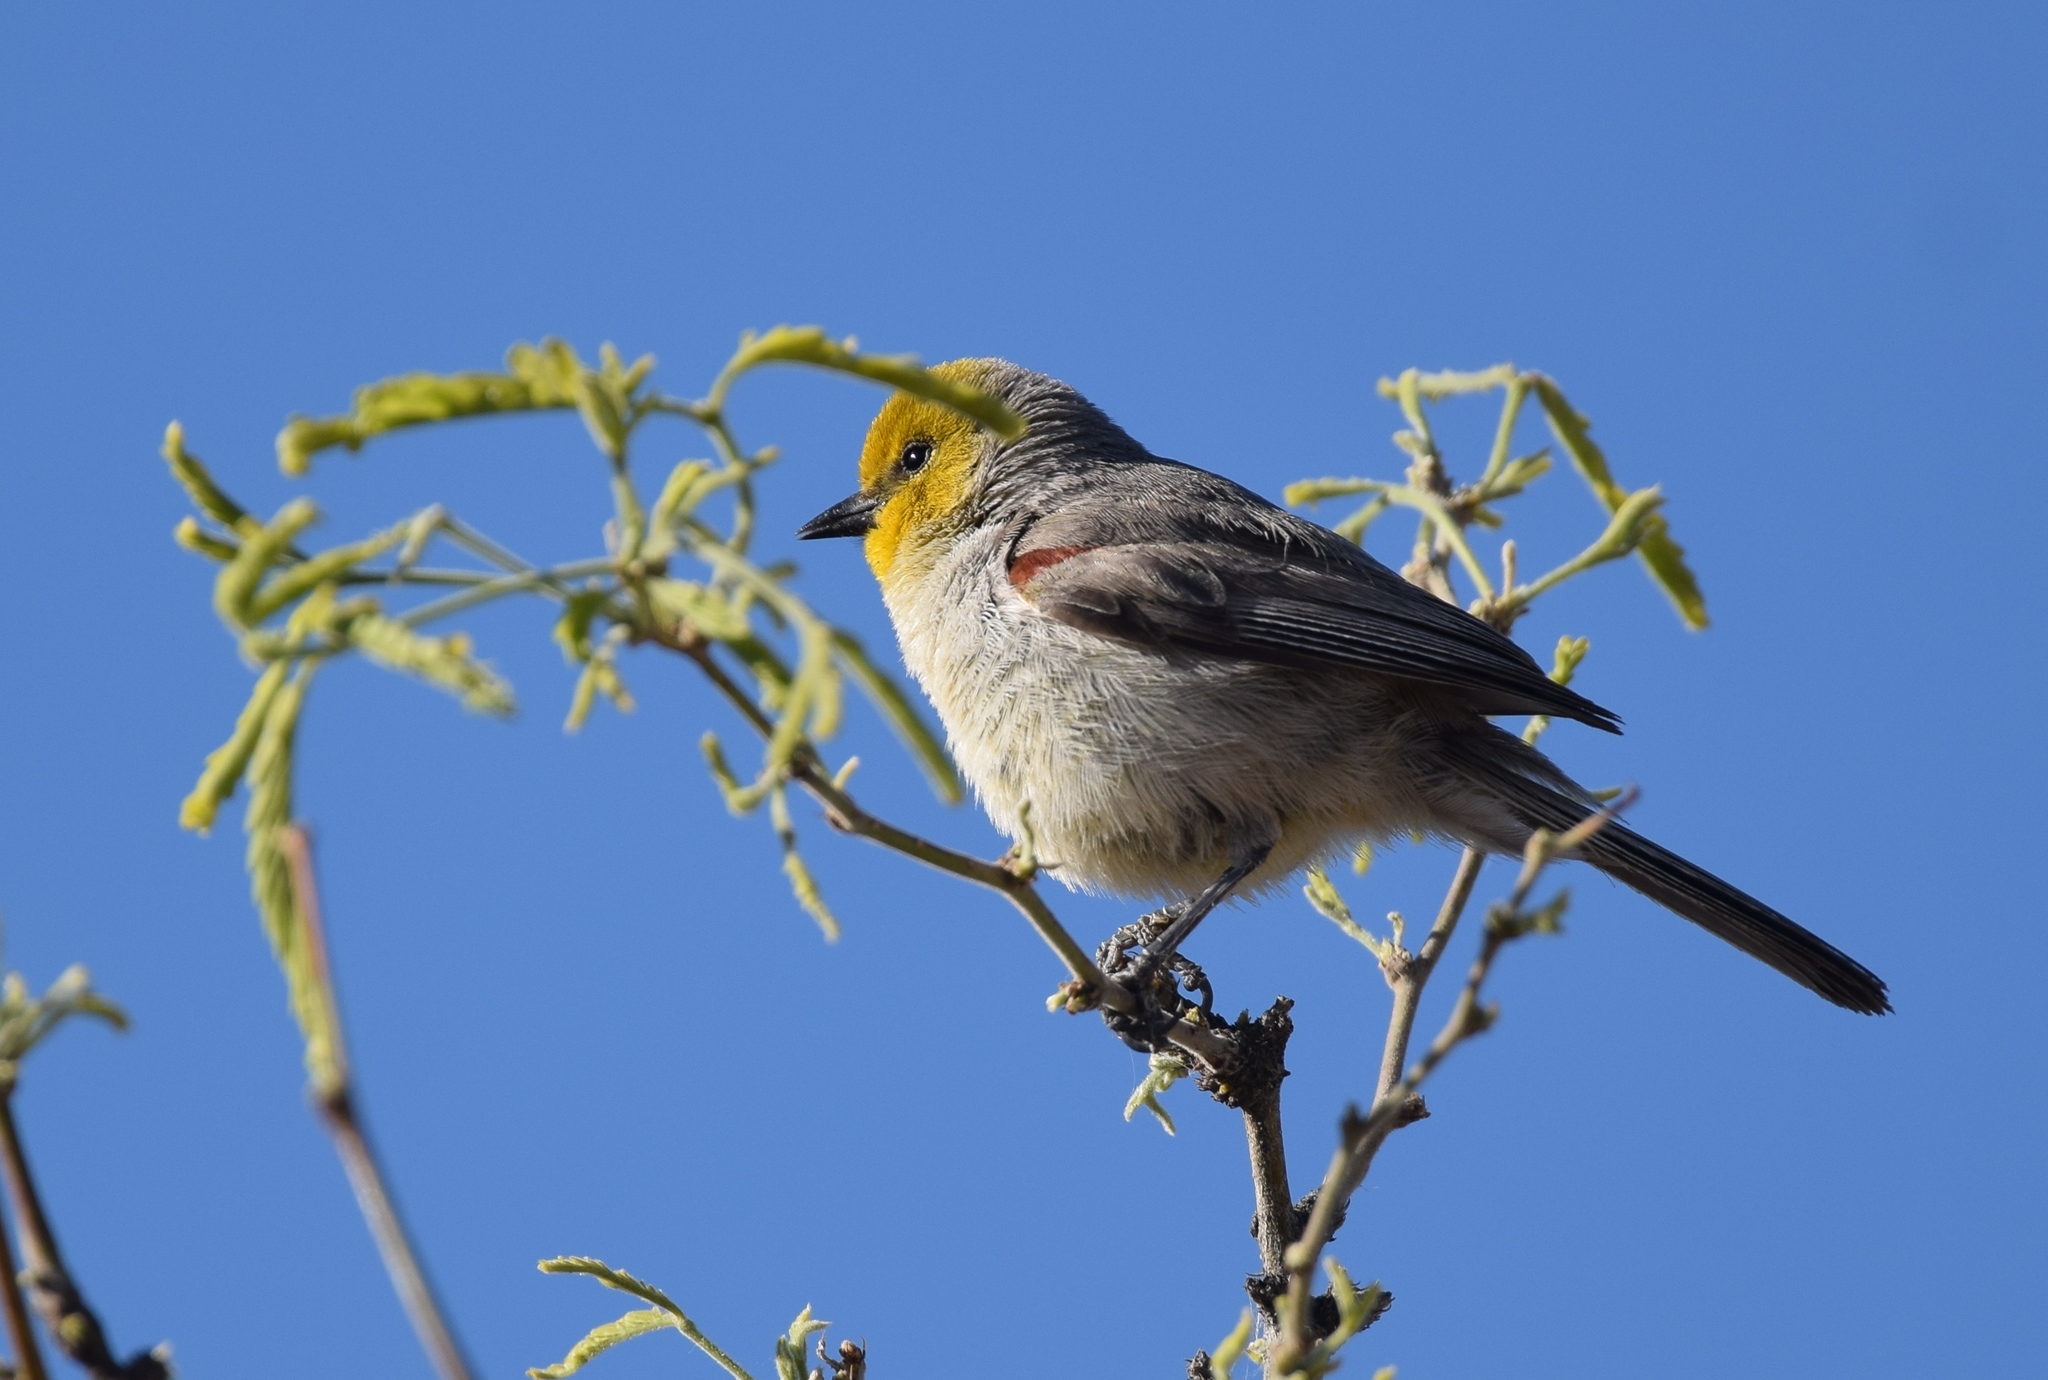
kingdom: Animalia
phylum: Chordata
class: Aves
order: Passeriformes
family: Remizidae
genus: Auriparus
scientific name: Auriparus flaviceps
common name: Verdin
